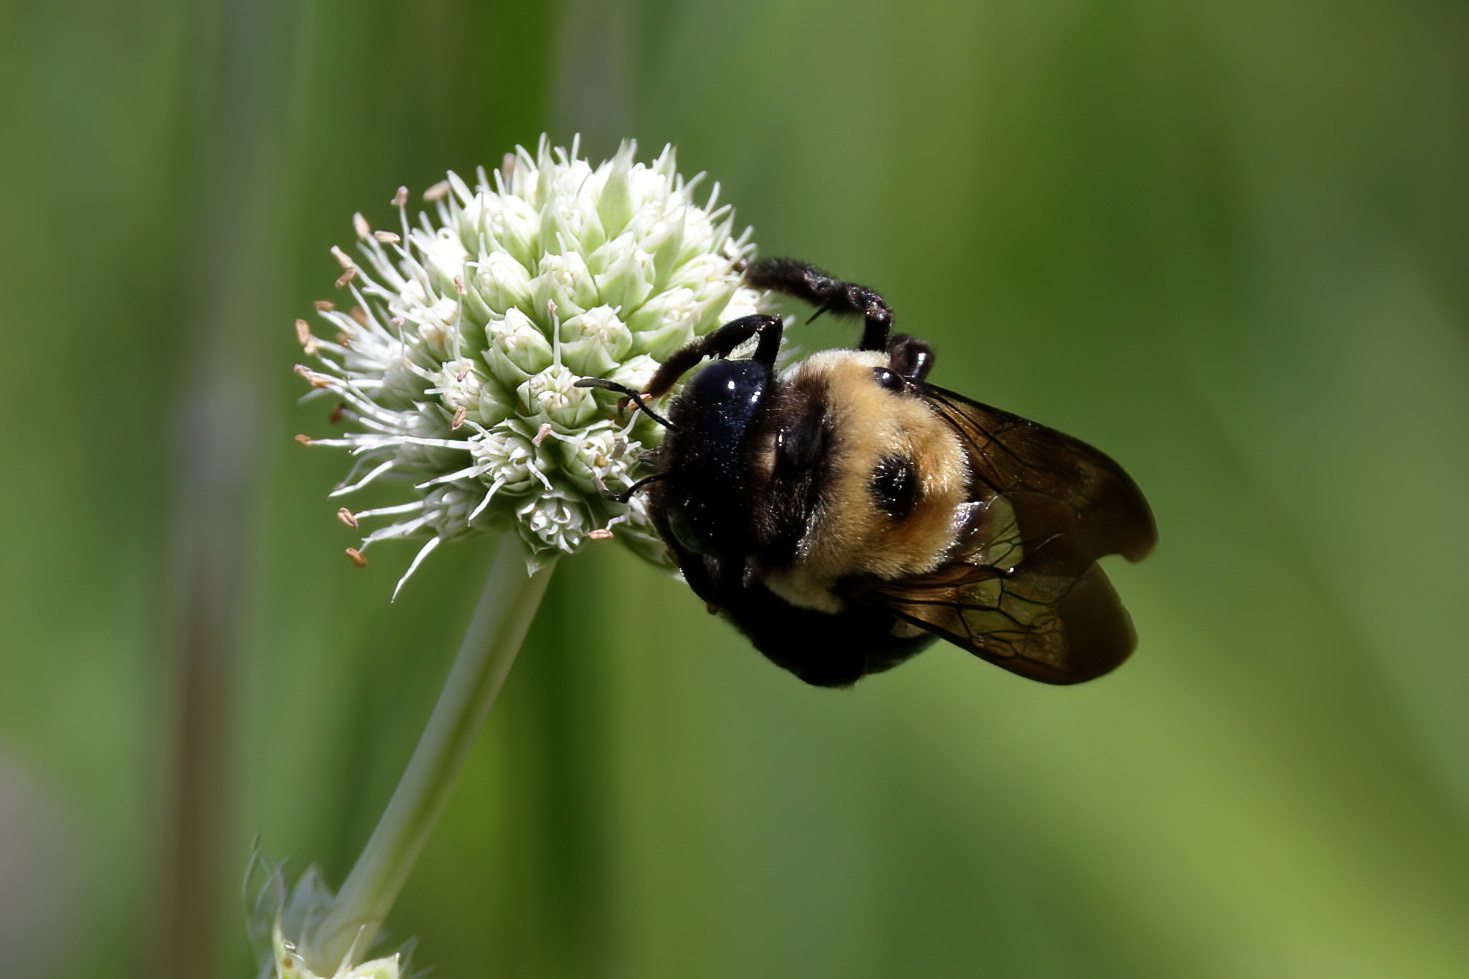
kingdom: Animalia
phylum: Arthropoda
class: Insecta
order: Hymenoptera
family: Apidae
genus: Xylocopa
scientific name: Xylocopa virginica
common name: Carpenter bee
